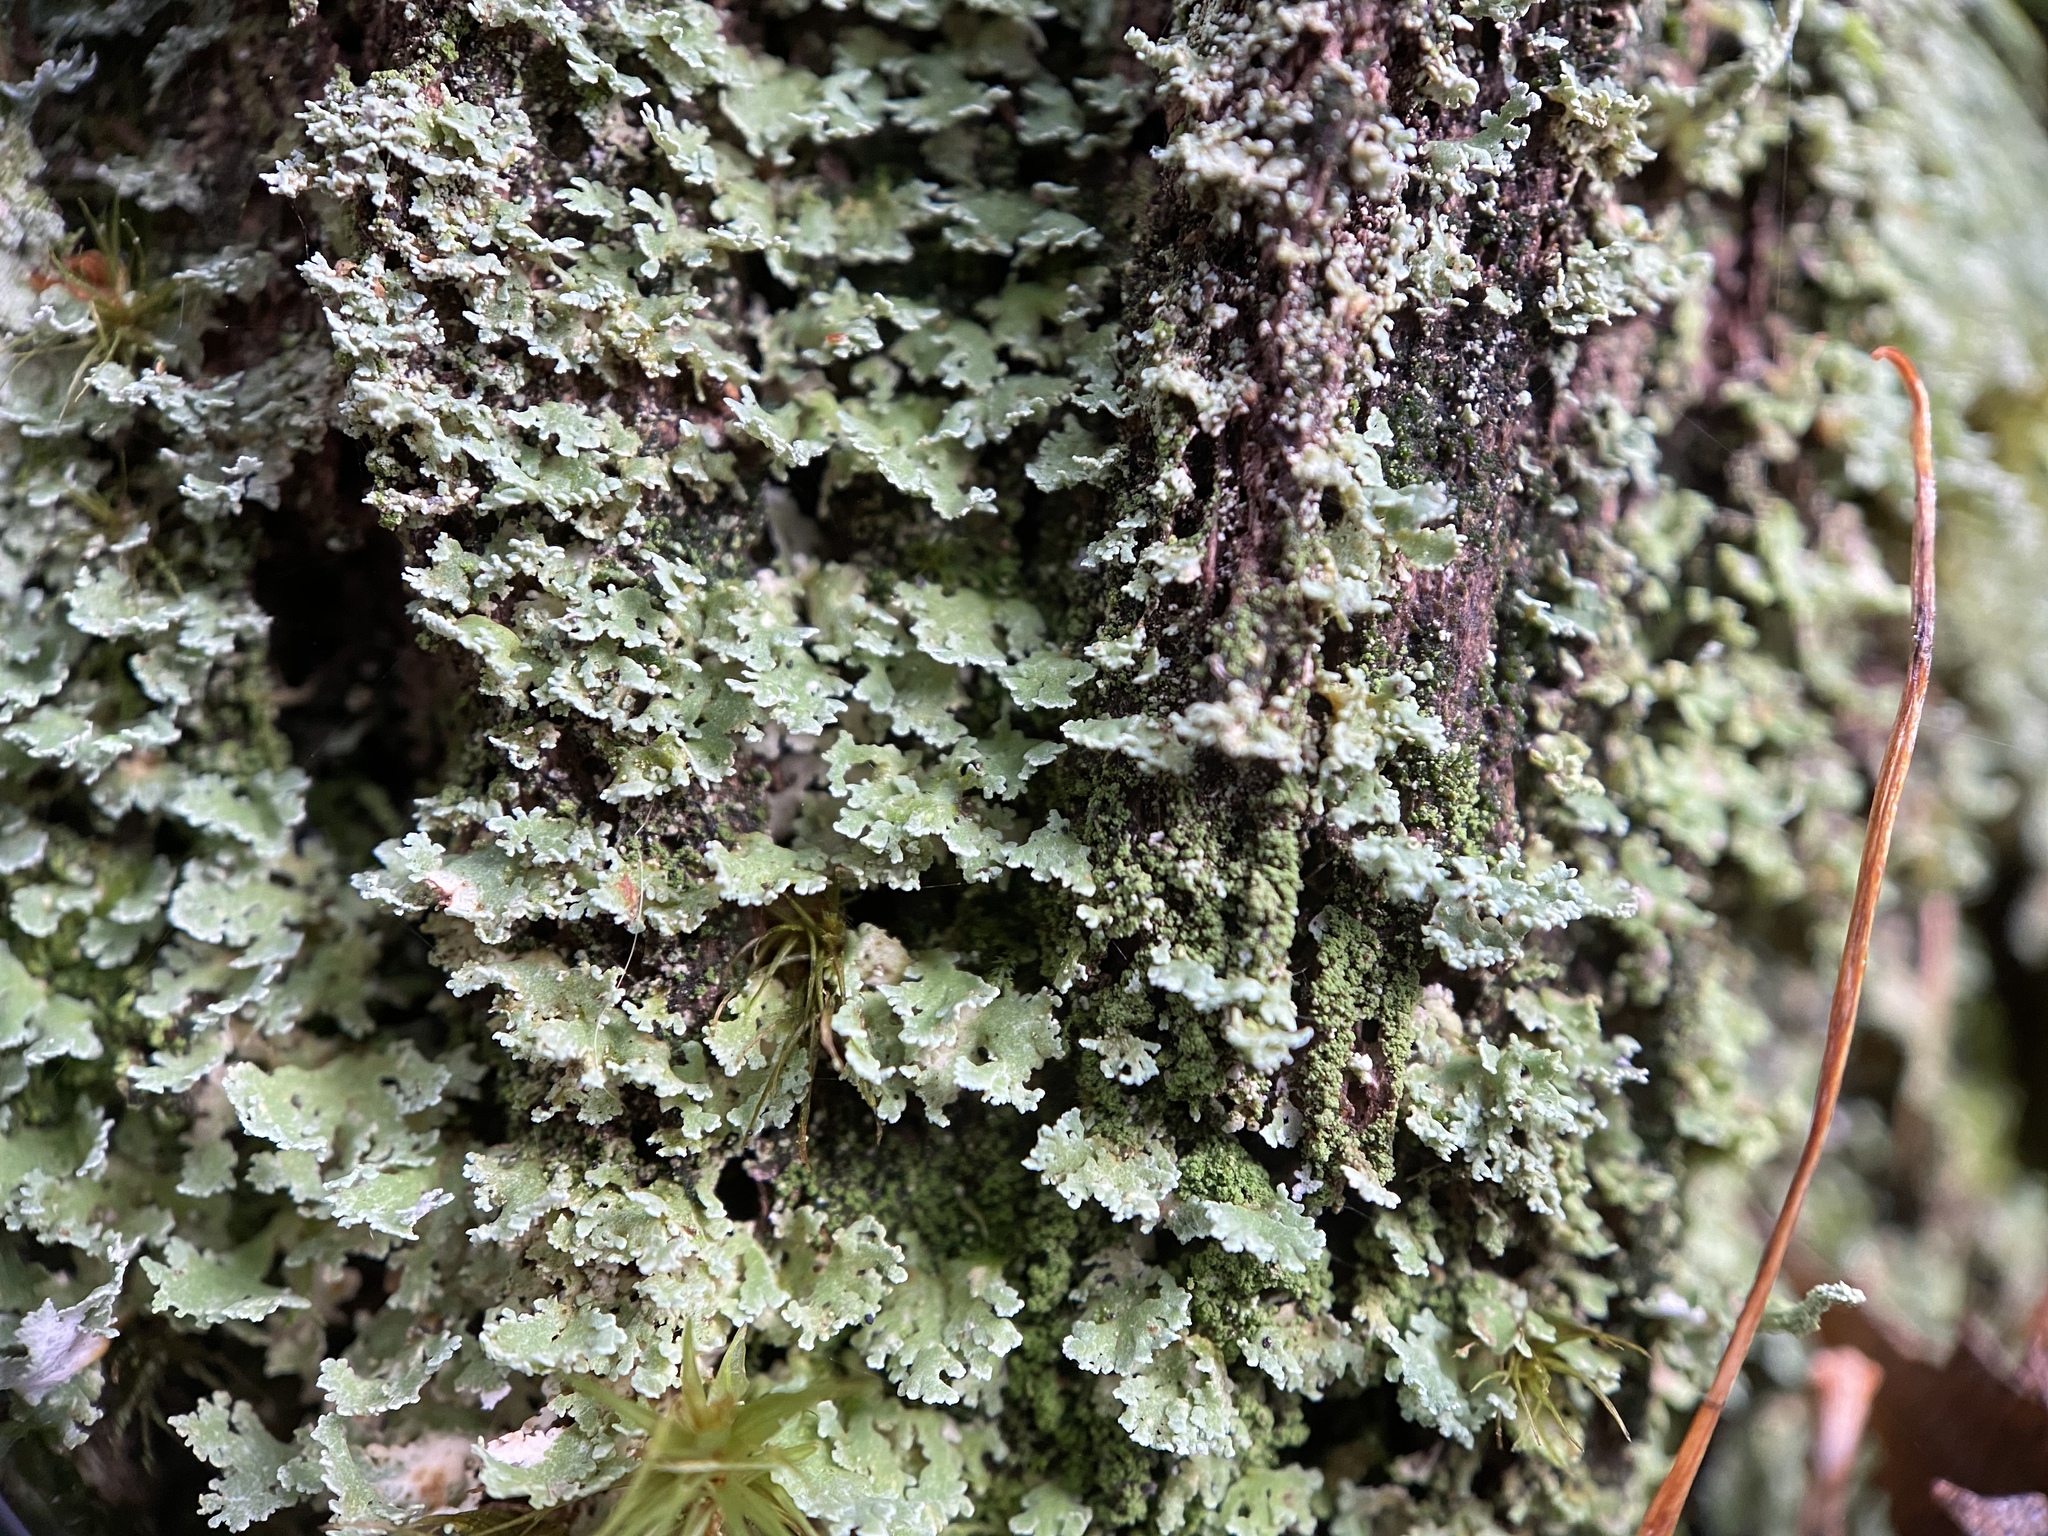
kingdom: Fungi
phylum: Ascomycota
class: Lecanoromycetes
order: Lecanorales
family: Cladoniaceae
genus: Cladonia
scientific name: Cladonia
